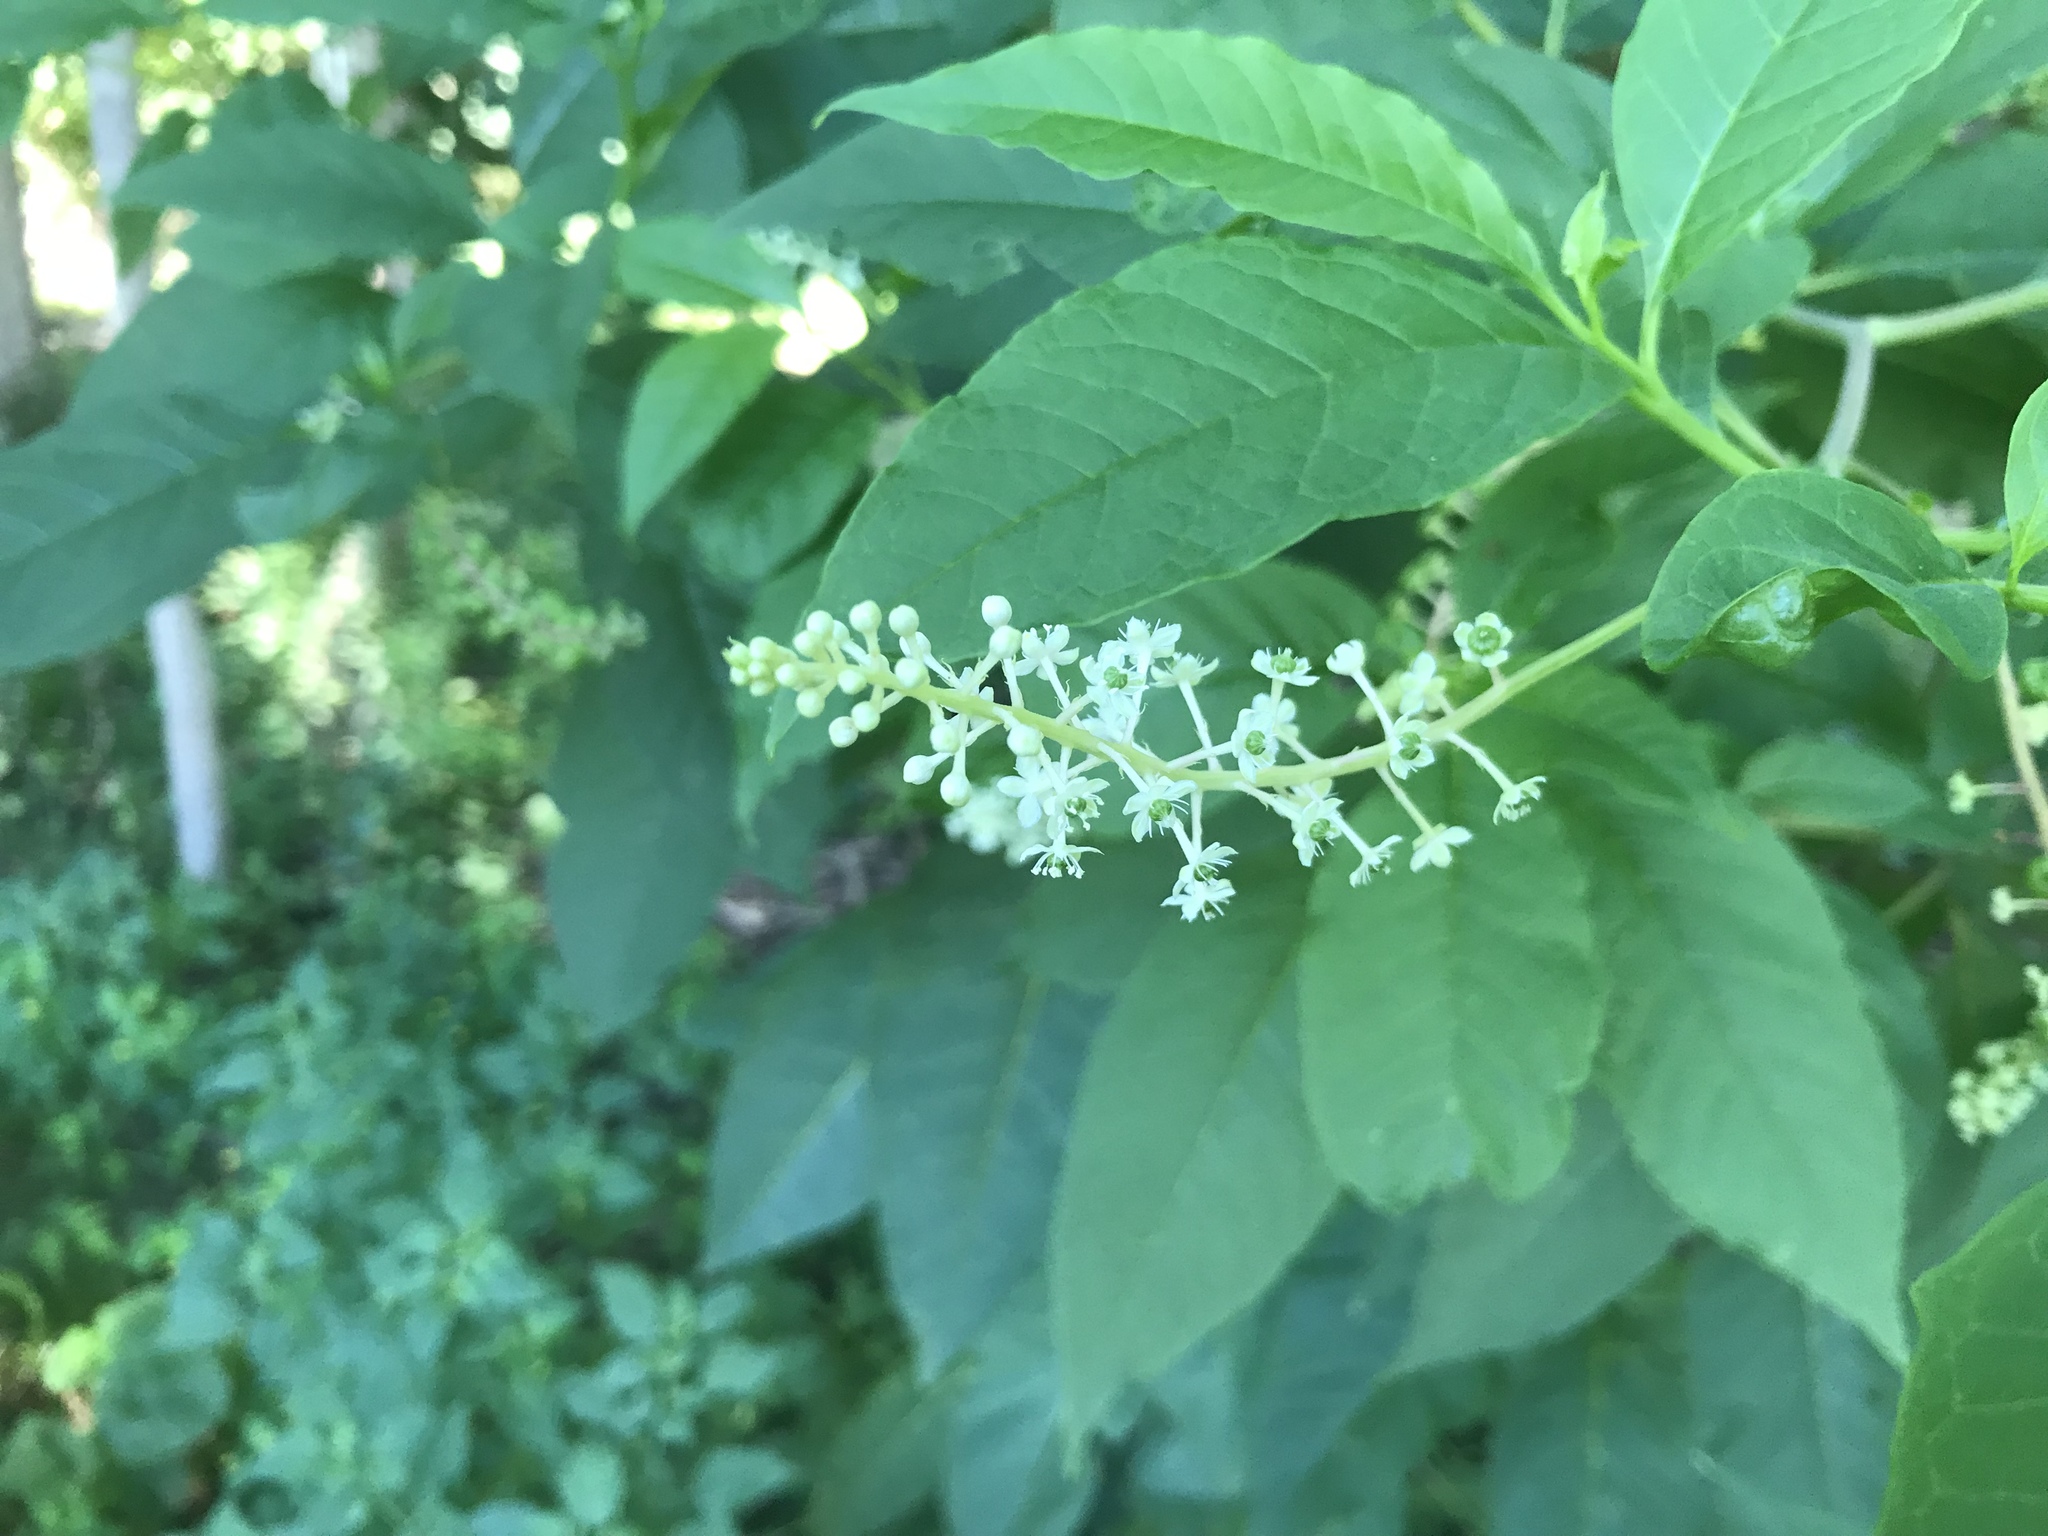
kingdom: Plantae
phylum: Tracheophyta
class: Magnoliopsida
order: Caryophyllales
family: Phytolaccaceae
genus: Phytolacca
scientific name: Phytolacca americana
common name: American pokeweed
